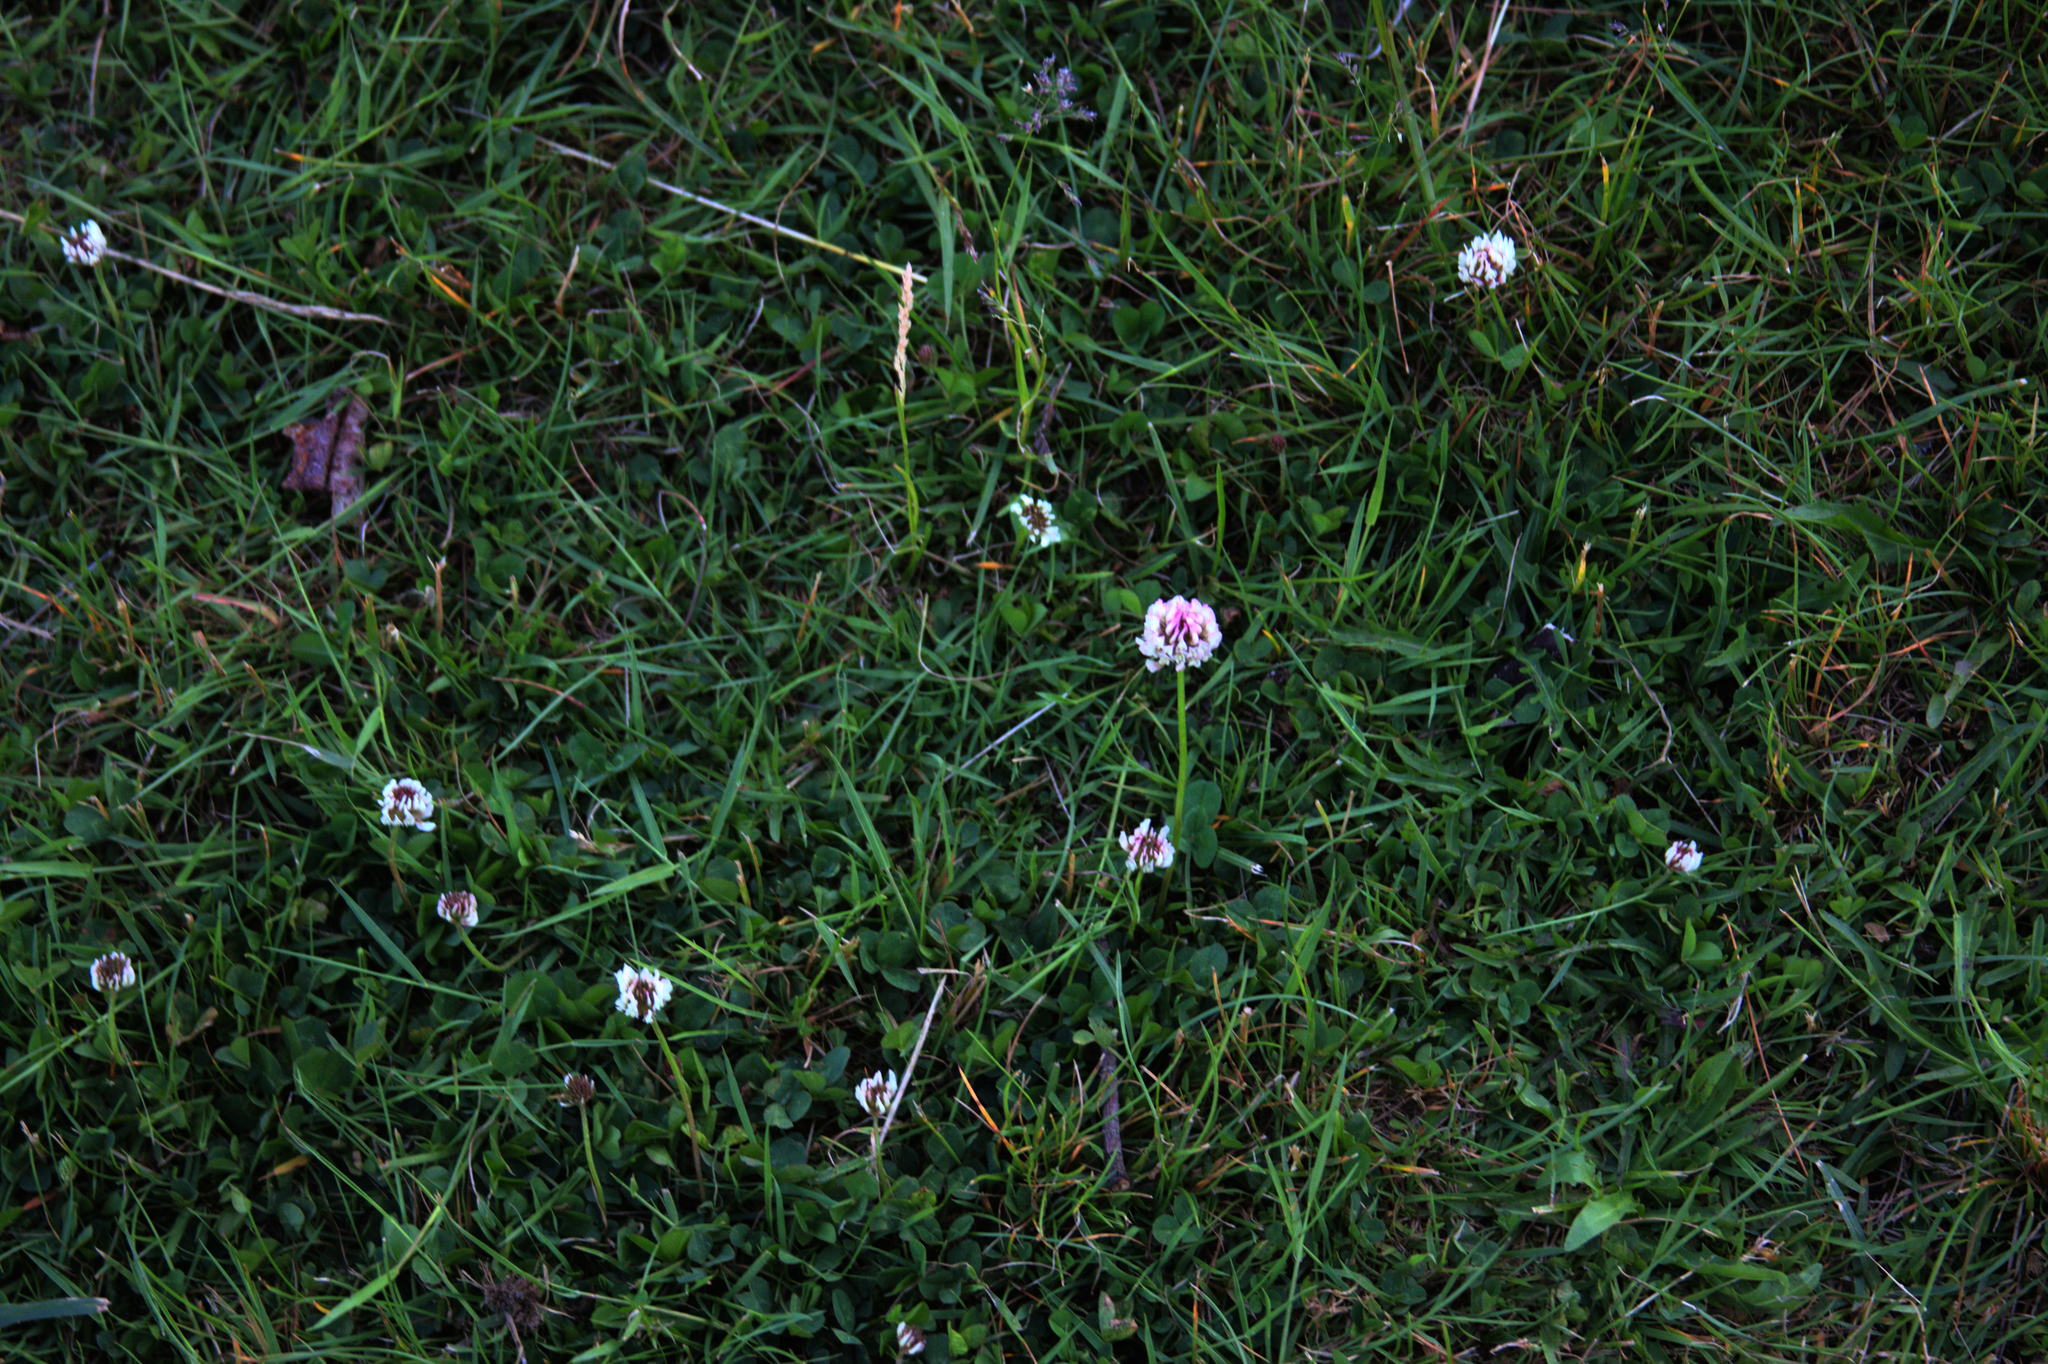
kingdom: Plantae
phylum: Tracheophyta
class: Magnoliopsida
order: Fabales
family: Fabaceae
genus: Trifolium
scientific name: Trifolium repens
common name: White clover
